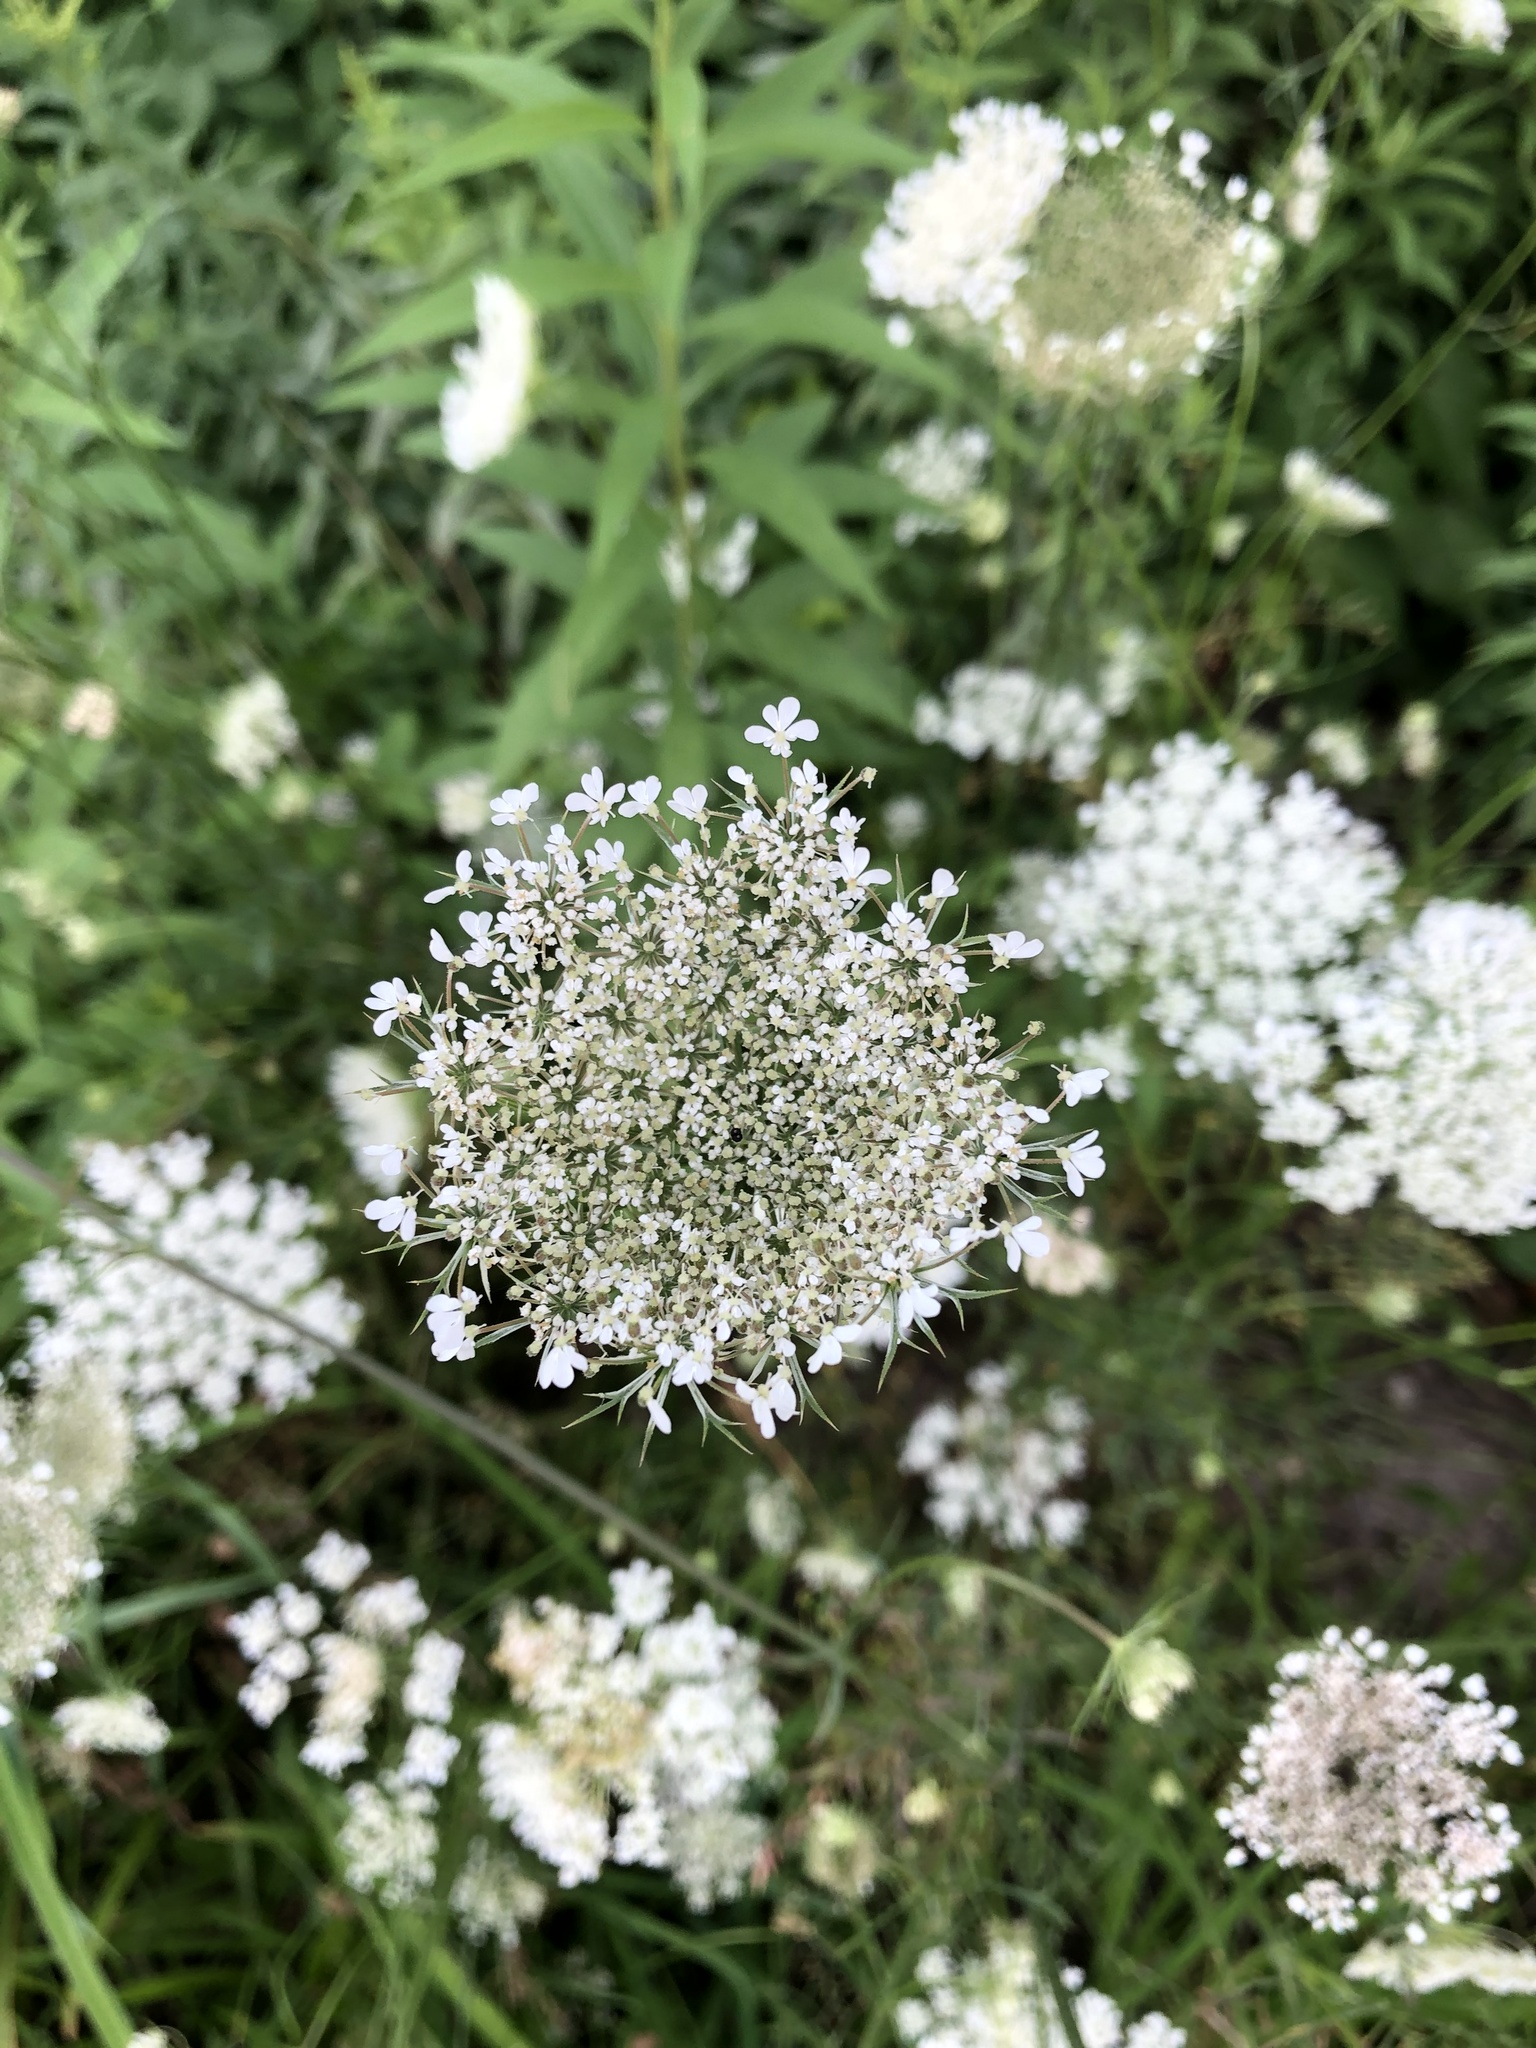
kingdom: Plantae
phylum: Tracheophyta
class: Magnoliopsida
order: Apiales
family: Apiaceae
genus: Daucus
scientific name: Daucus carota
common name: Wild carrot
